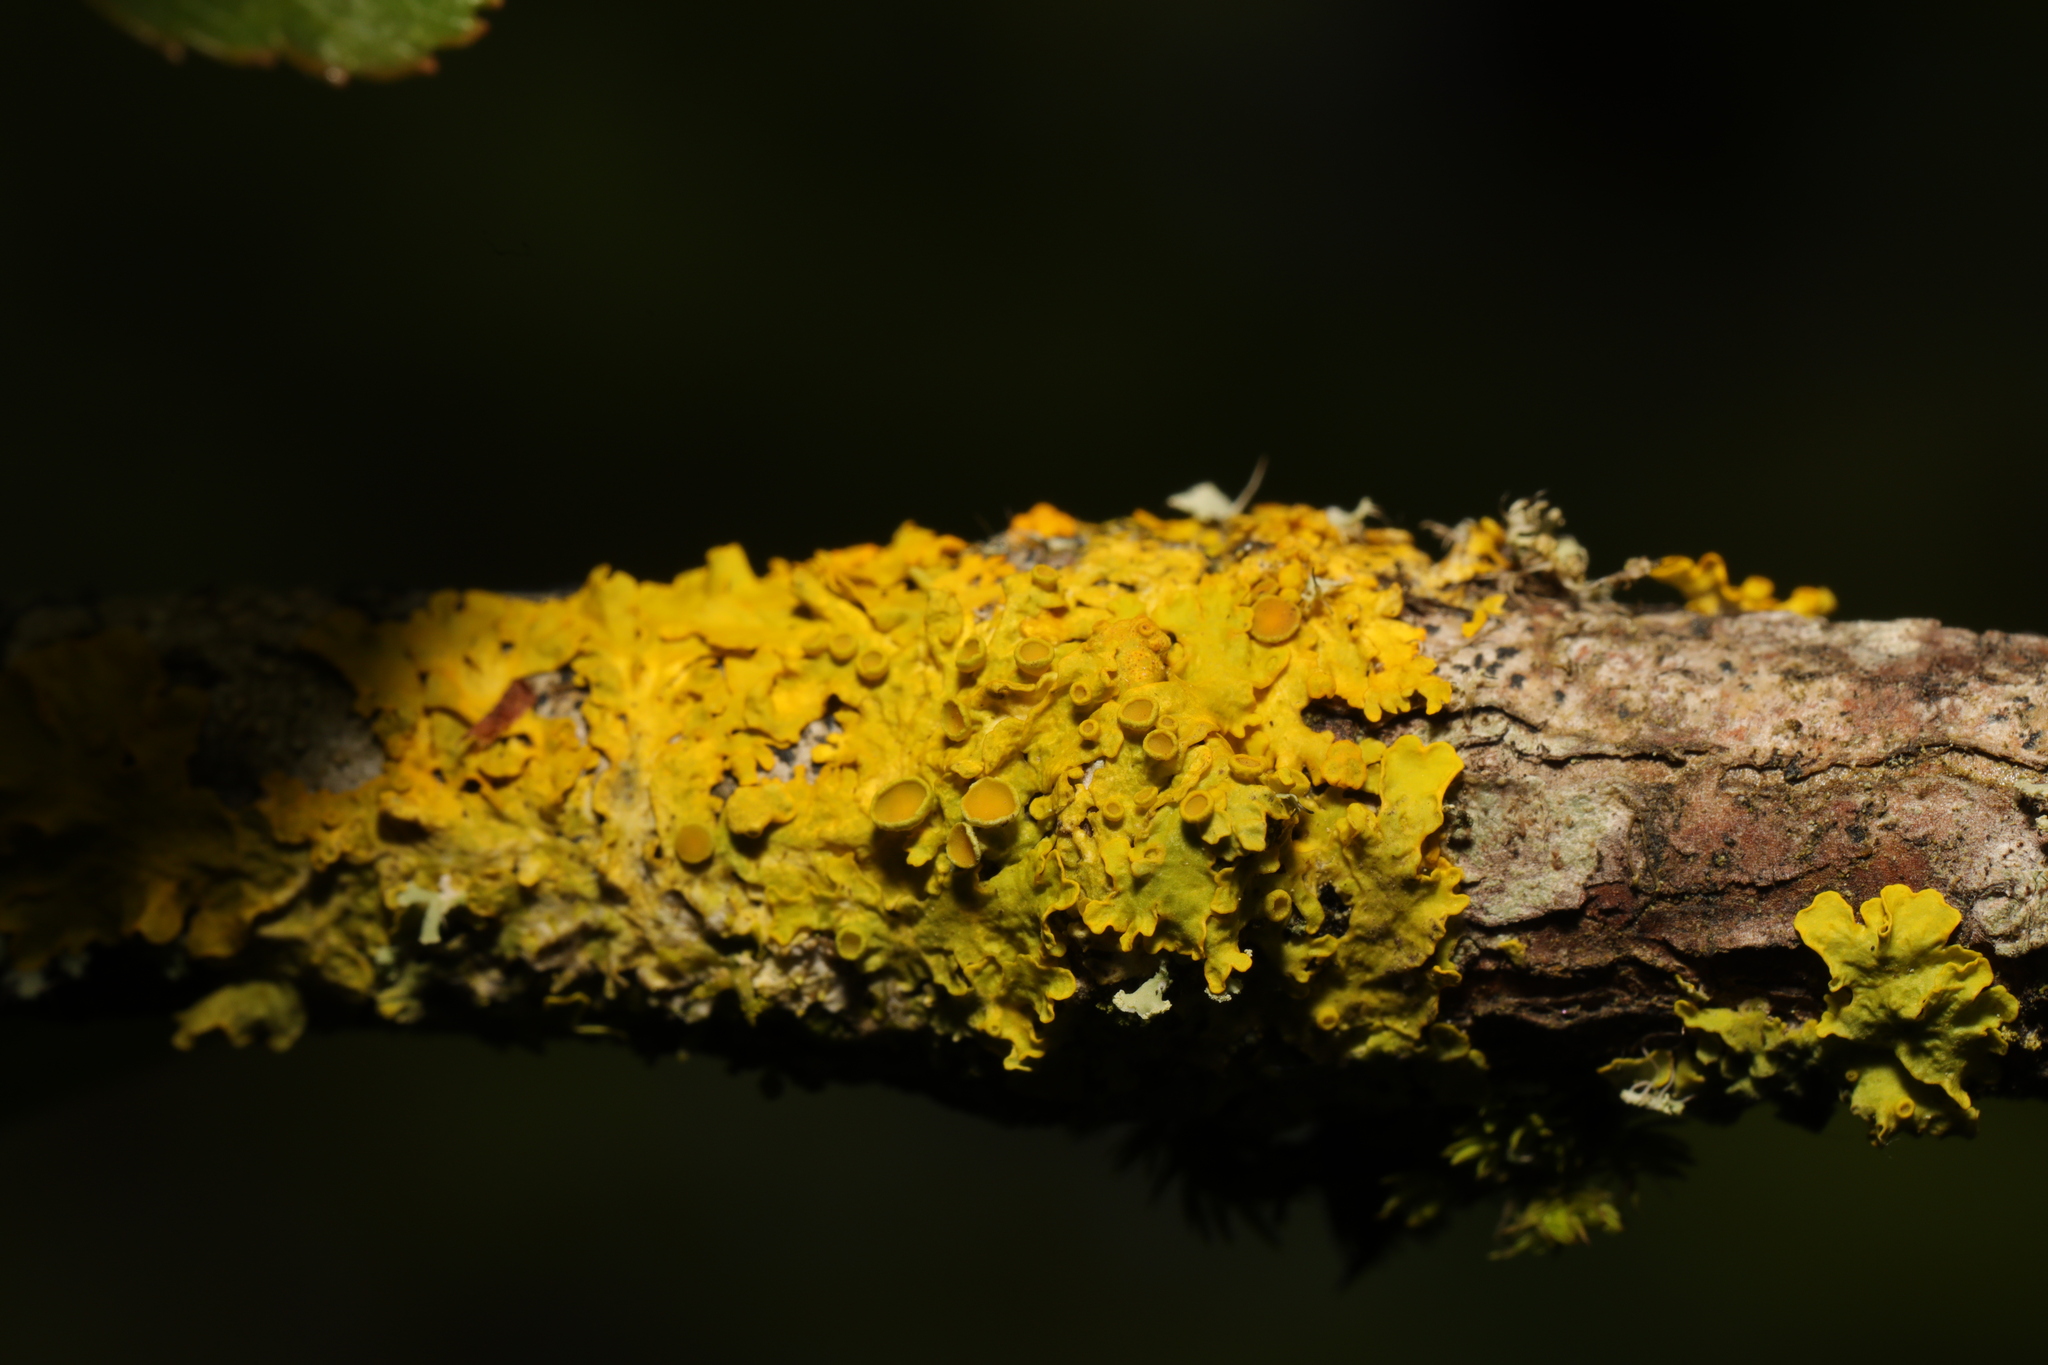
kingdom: Fungi
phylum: Ascomycota
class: Lecanoromycetes
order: Teloschistales
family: Teloschistaceae
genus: Xanthoria
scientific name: Xanthoria parietina
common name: Common orange lichen
